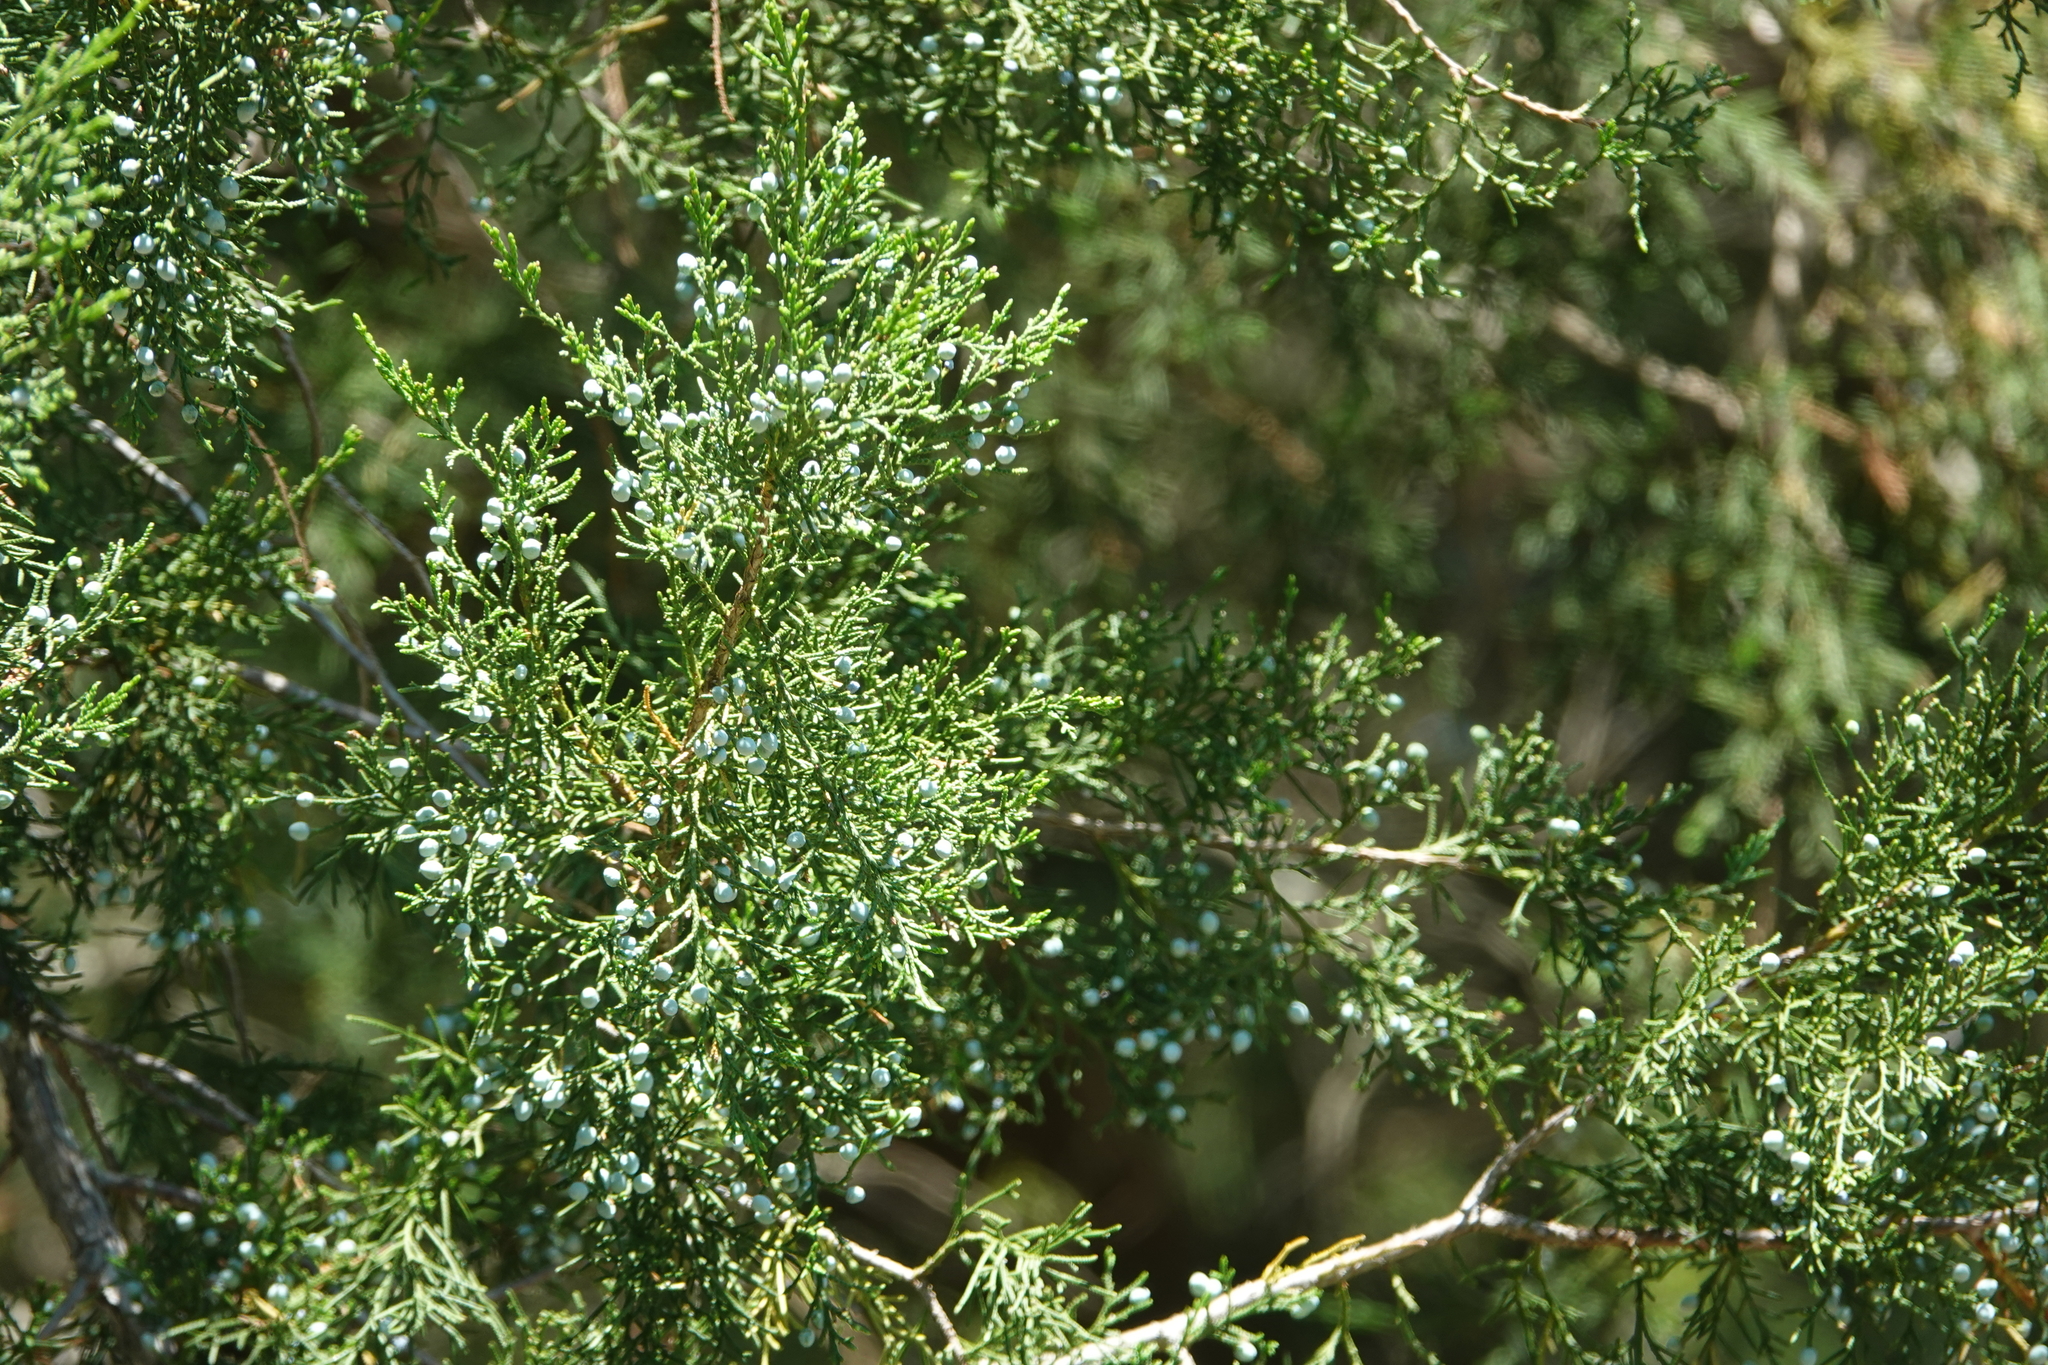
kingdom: Plantae
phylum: Tracheophyta
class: Pinopsida
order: Pinales
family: Cupressaceae
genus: Juniperus
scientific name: Juniperus virginiana
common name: Red juniper
